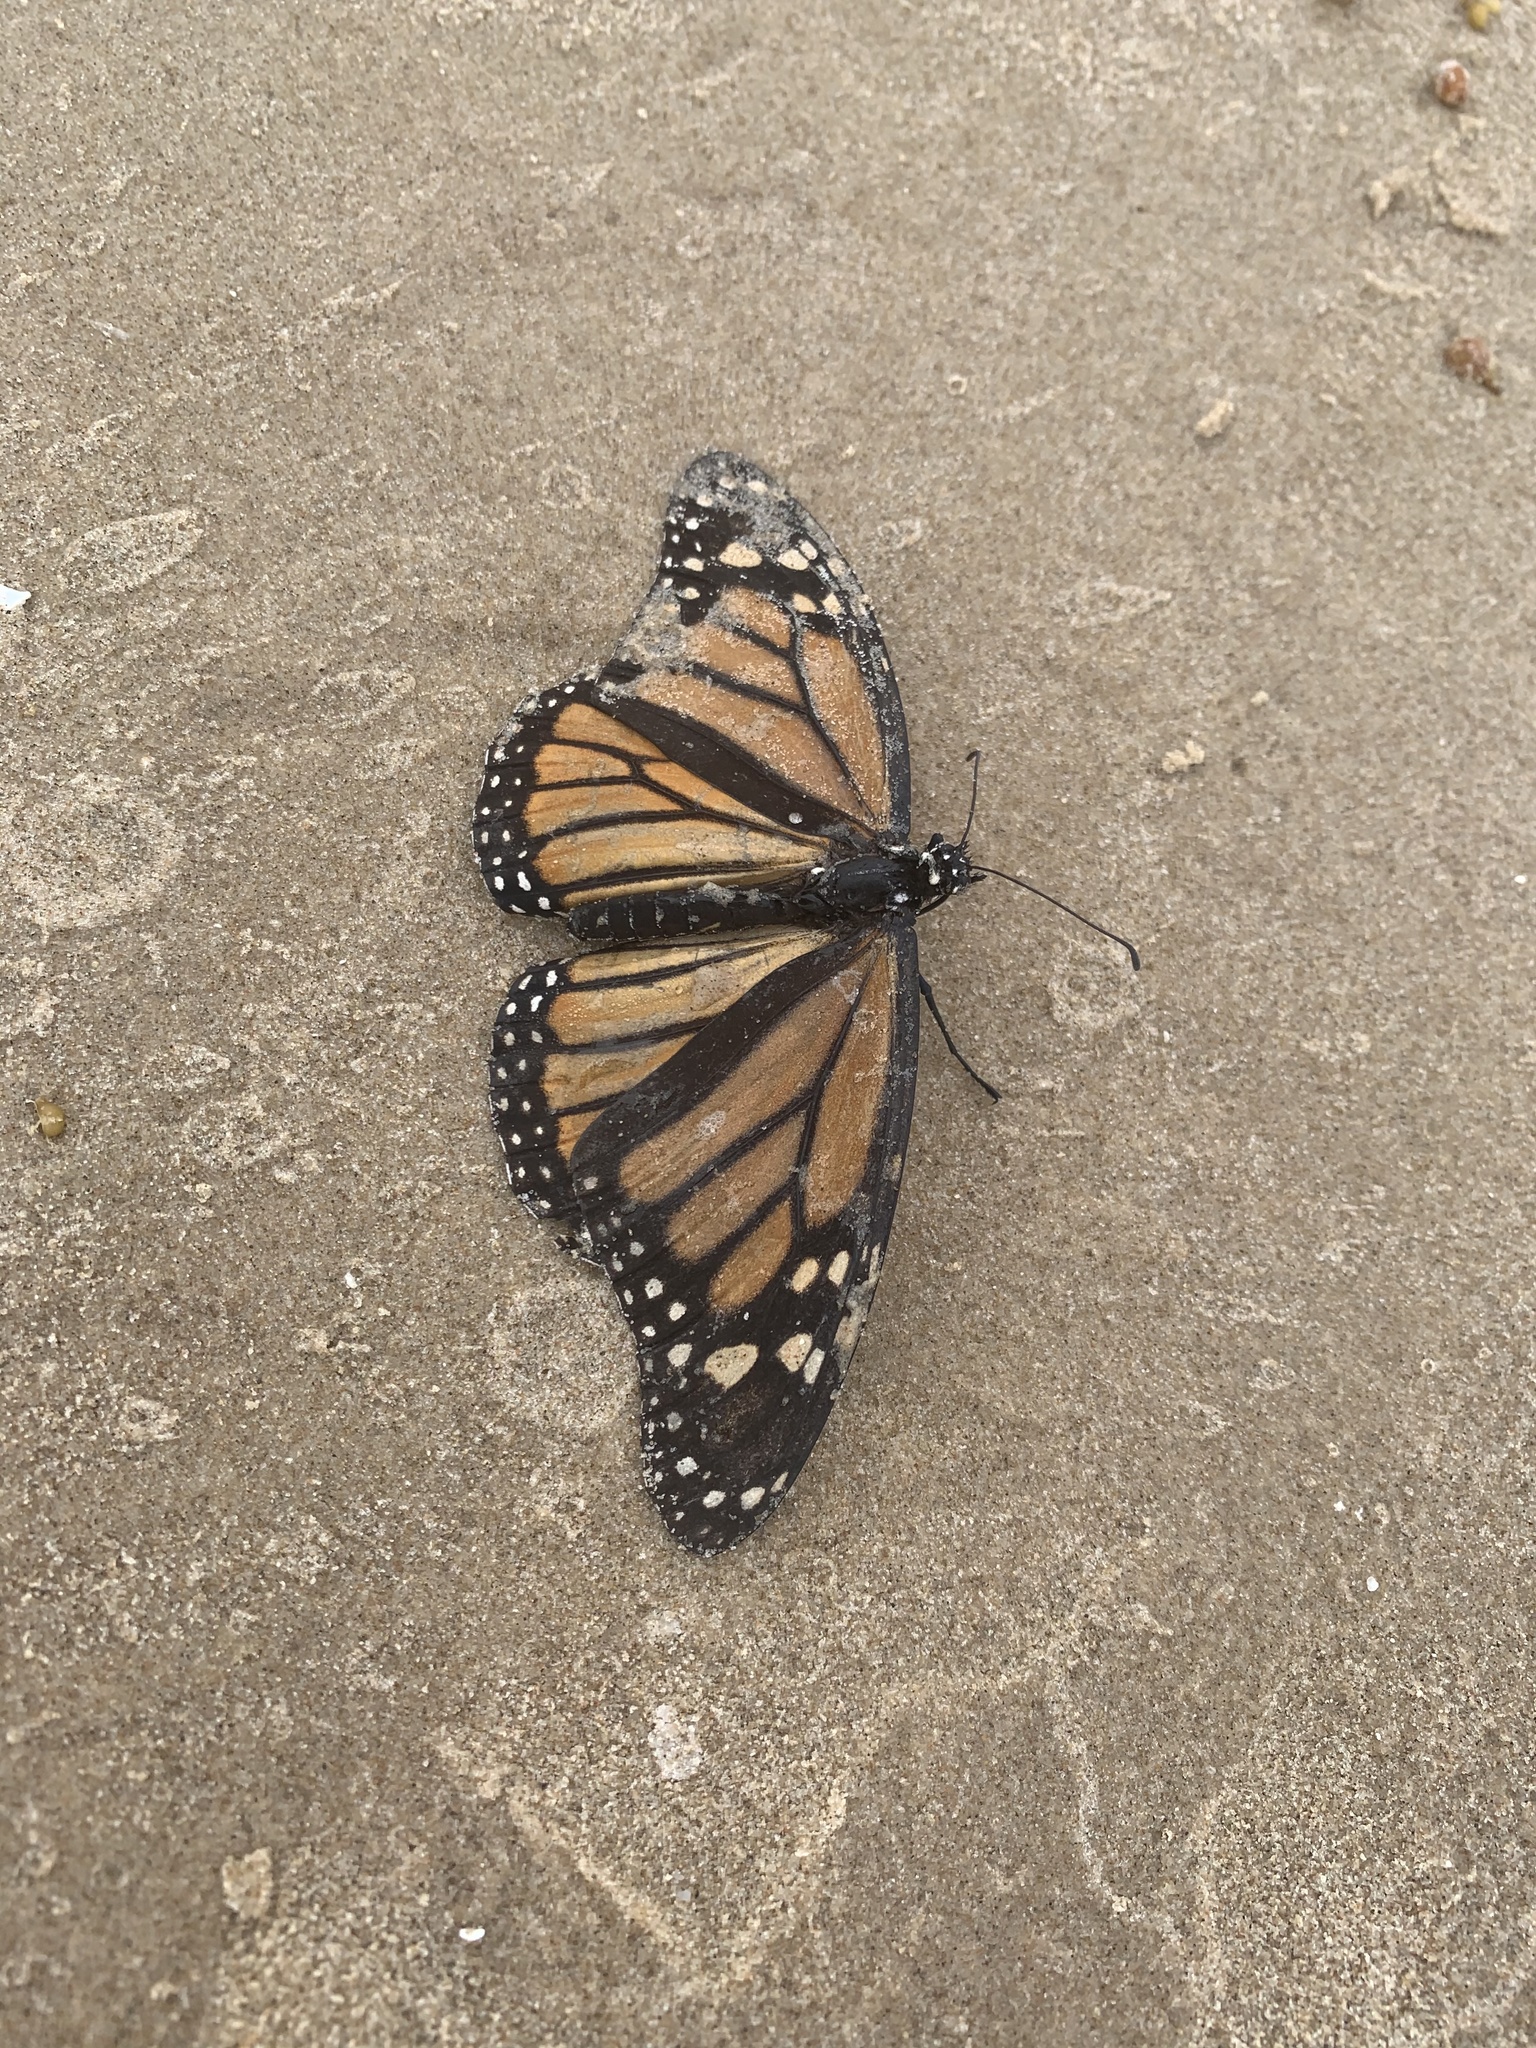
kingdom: Animalia
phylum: Arthropoda
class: Insecta
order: Lepidoptera
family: Nymphalidae
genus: Danaus
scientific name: Danaus plexippus
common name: Monarch
